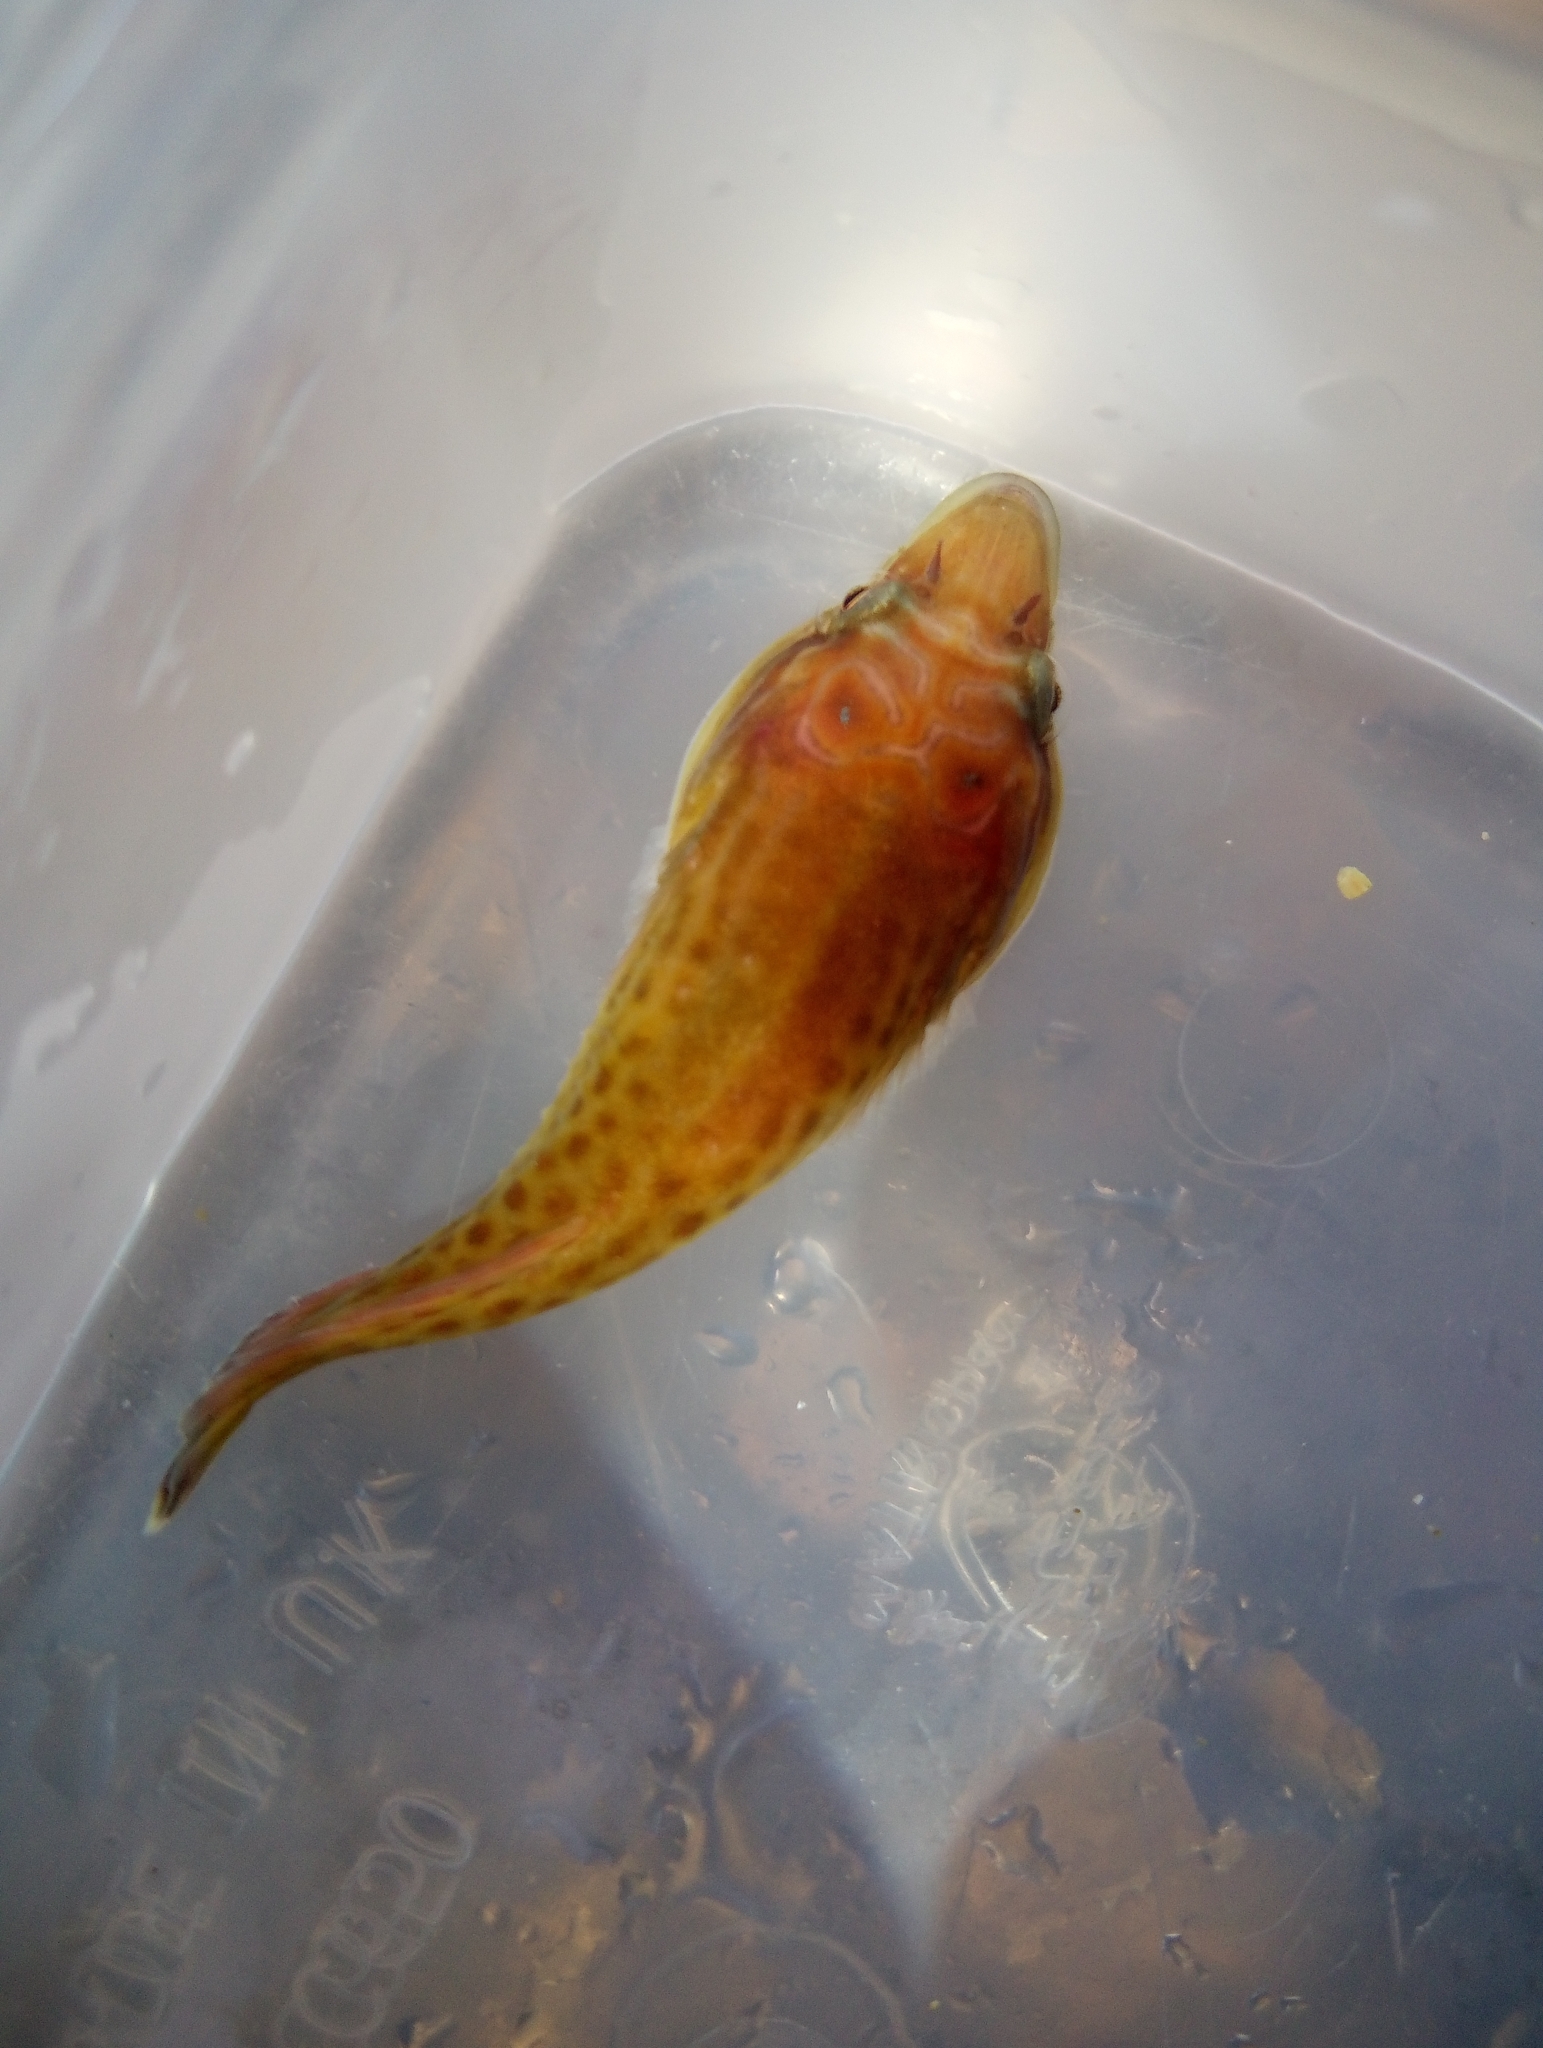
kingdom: Animalia
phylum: Chordata
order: Gobiesociformes
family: Gobiesocidae
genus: Lepadogaster
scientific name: Lepadogaster purpurea
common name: Cornish sucker
